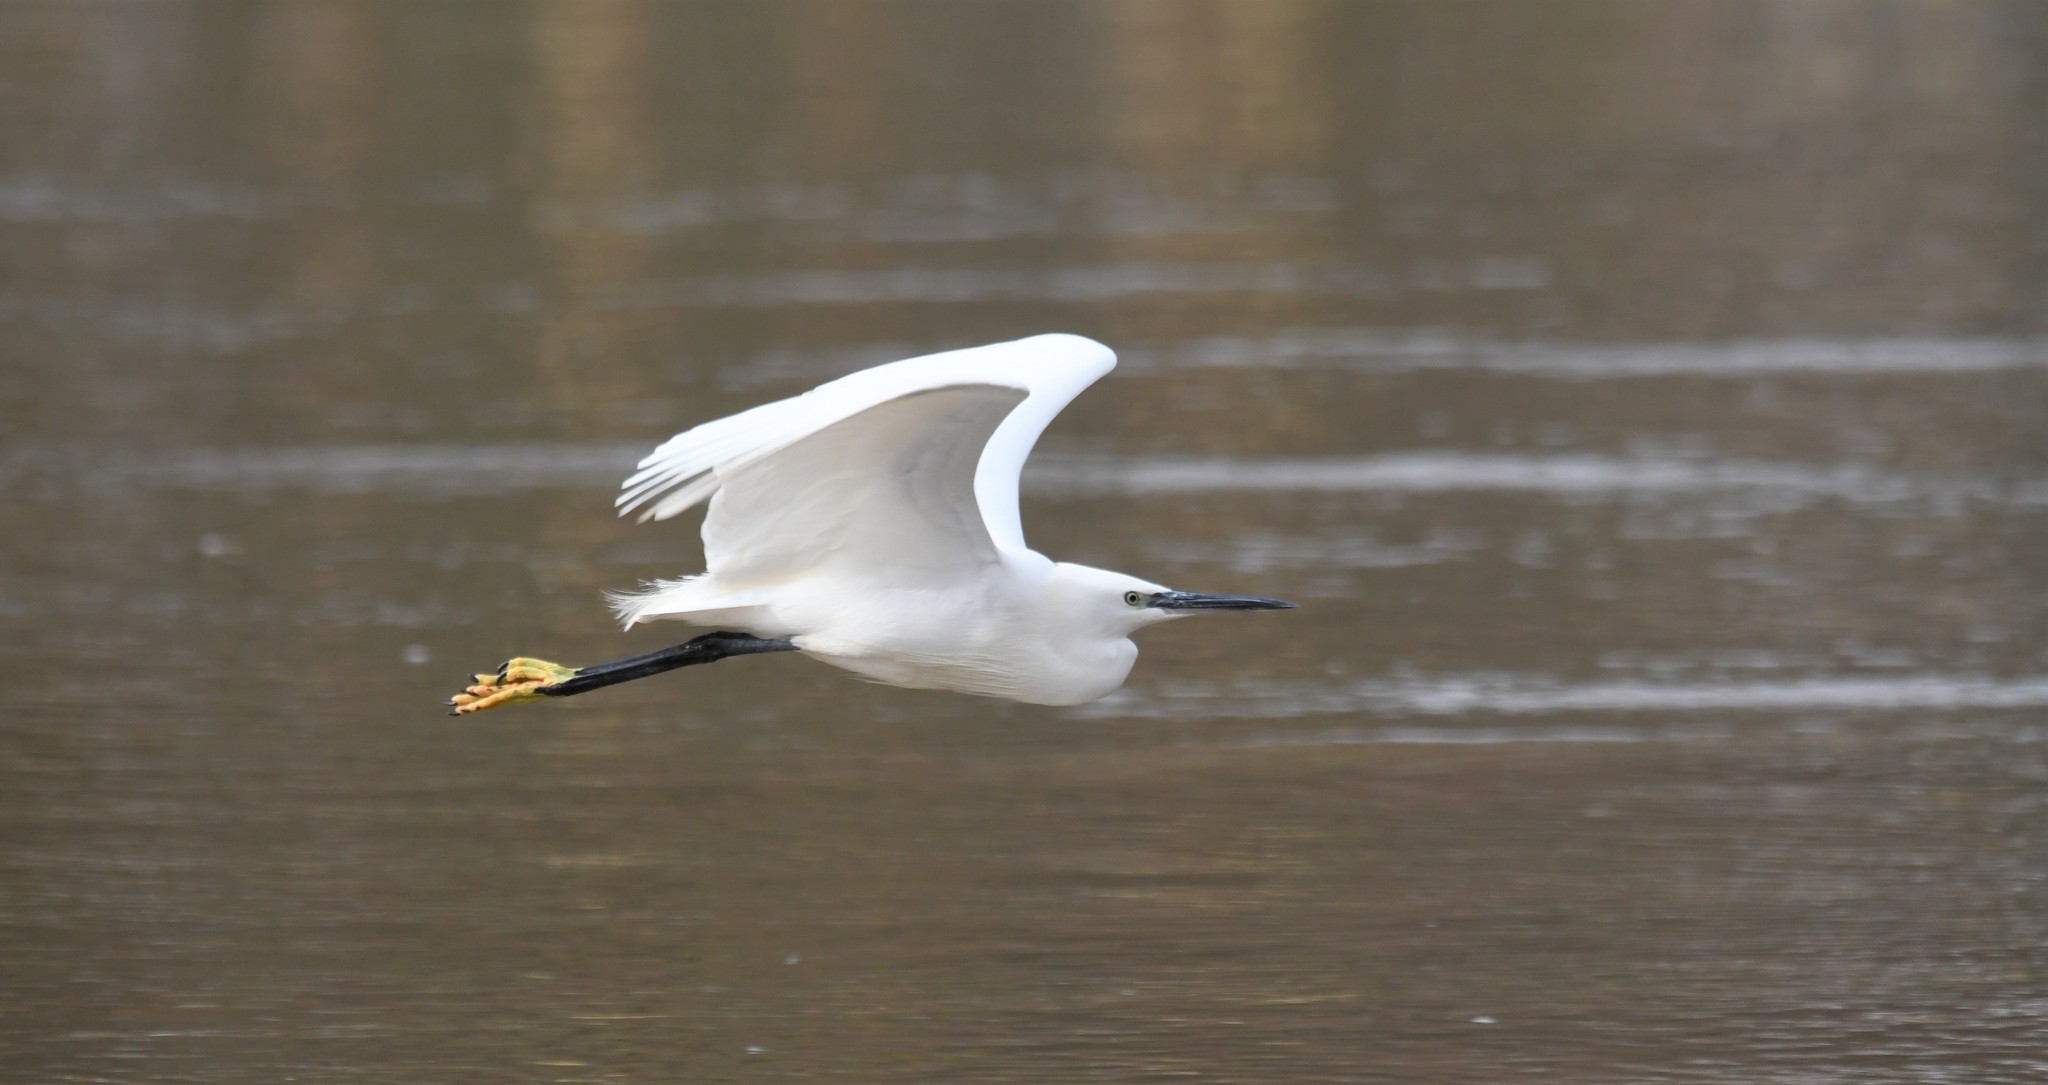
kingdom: Animalia
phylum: Chordata
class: Aves
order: Pelecaniformes
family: Ardeidae
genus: Egretta
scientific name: Egretta garzetta
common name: Little egret
